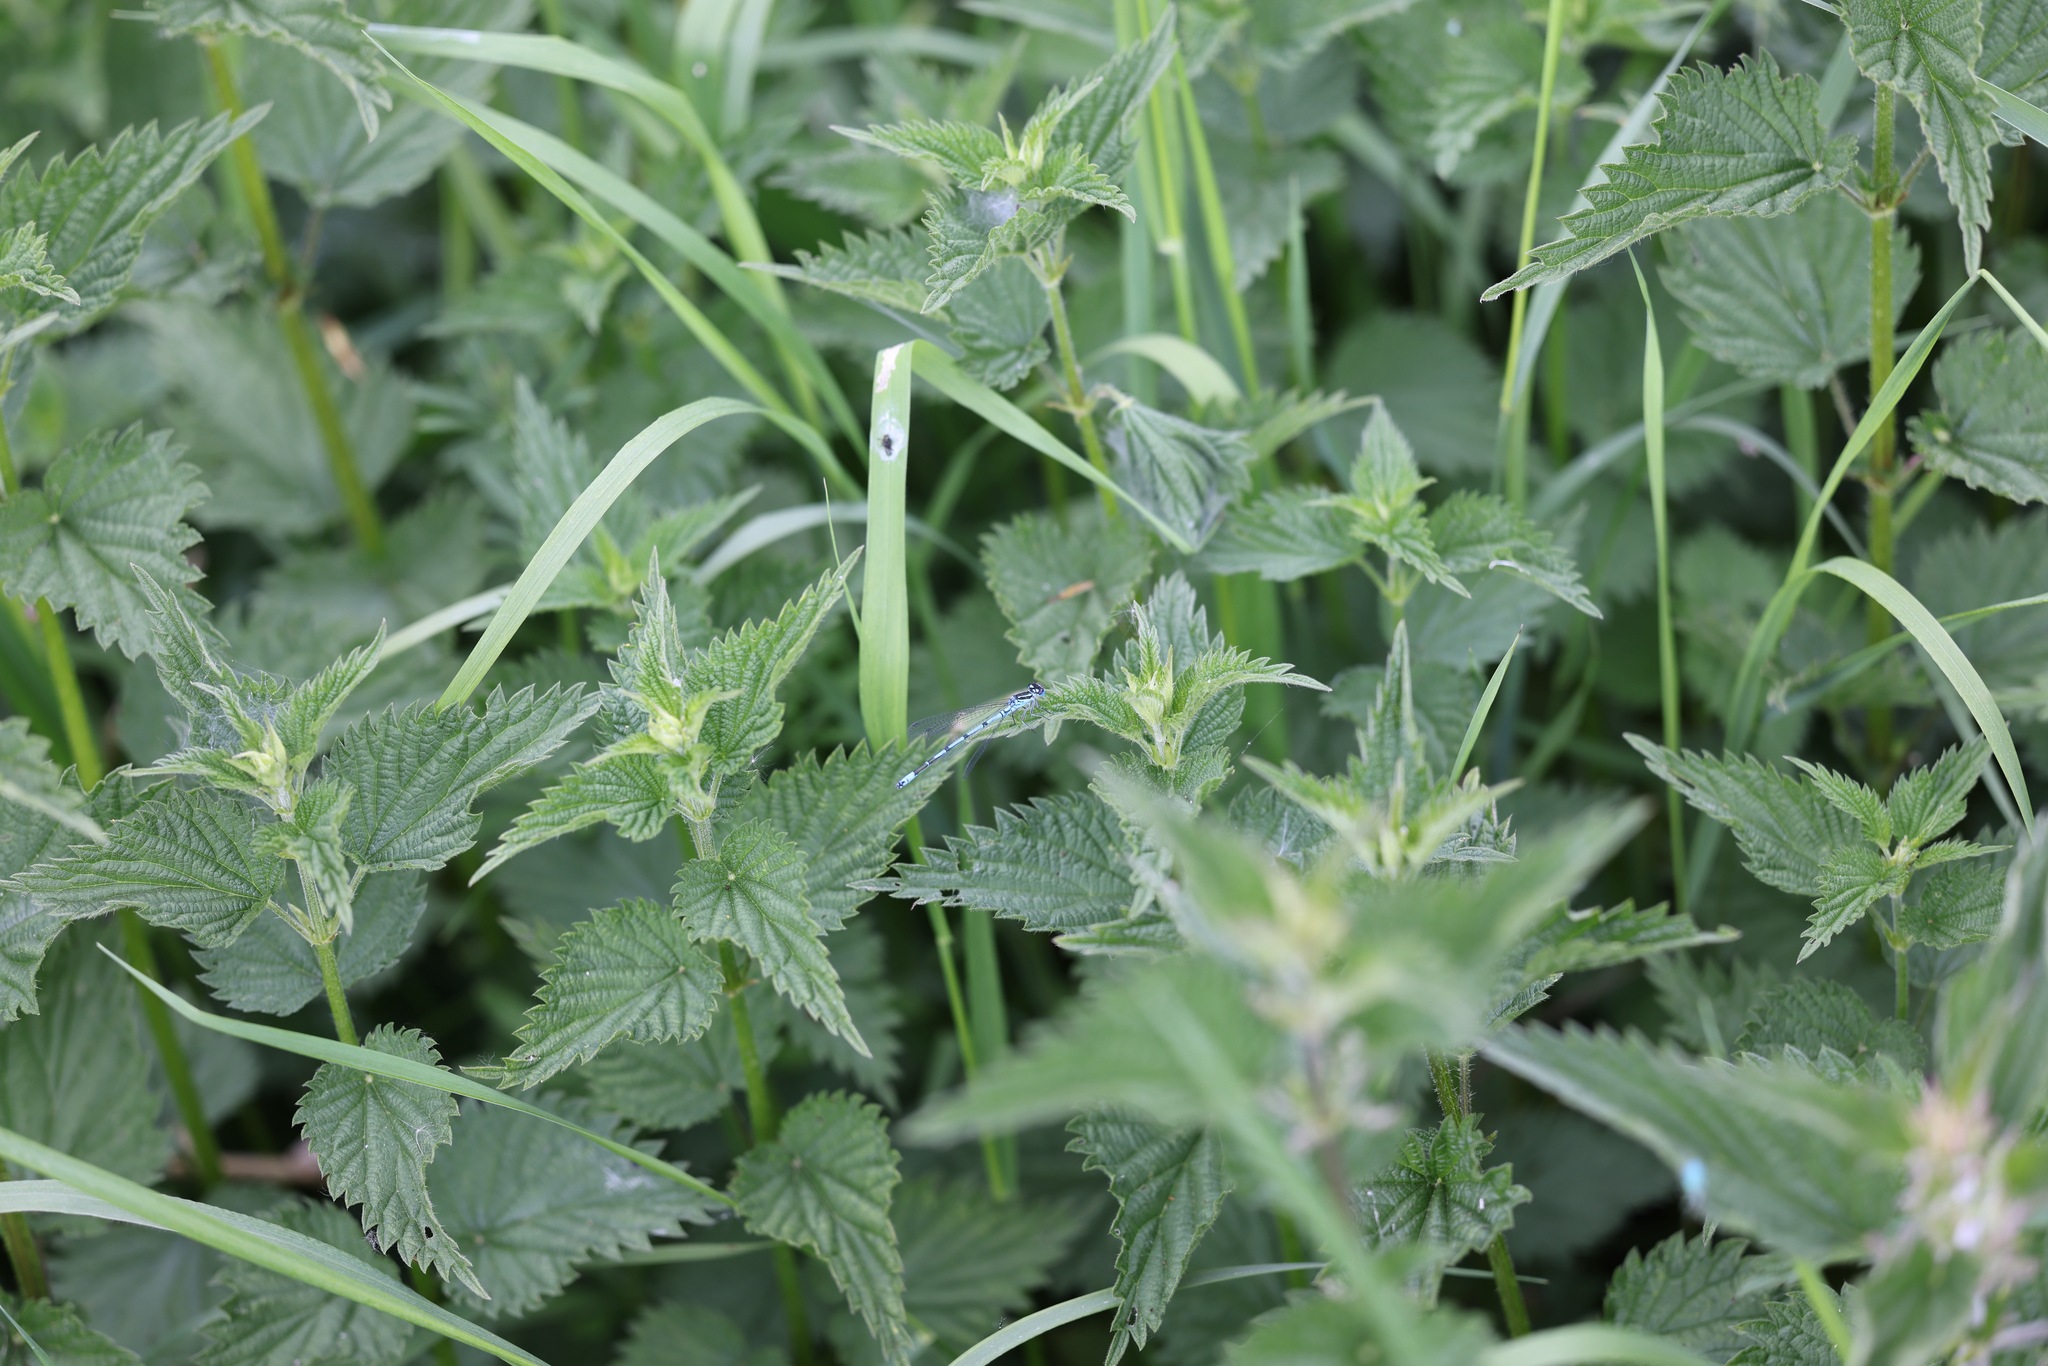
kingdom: Plantae
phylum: Tracheophyta
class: Magnoliopsida
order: Rosales
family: Urticaceae
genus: Urtica
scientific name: Urtica dioica
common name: Common nettle
